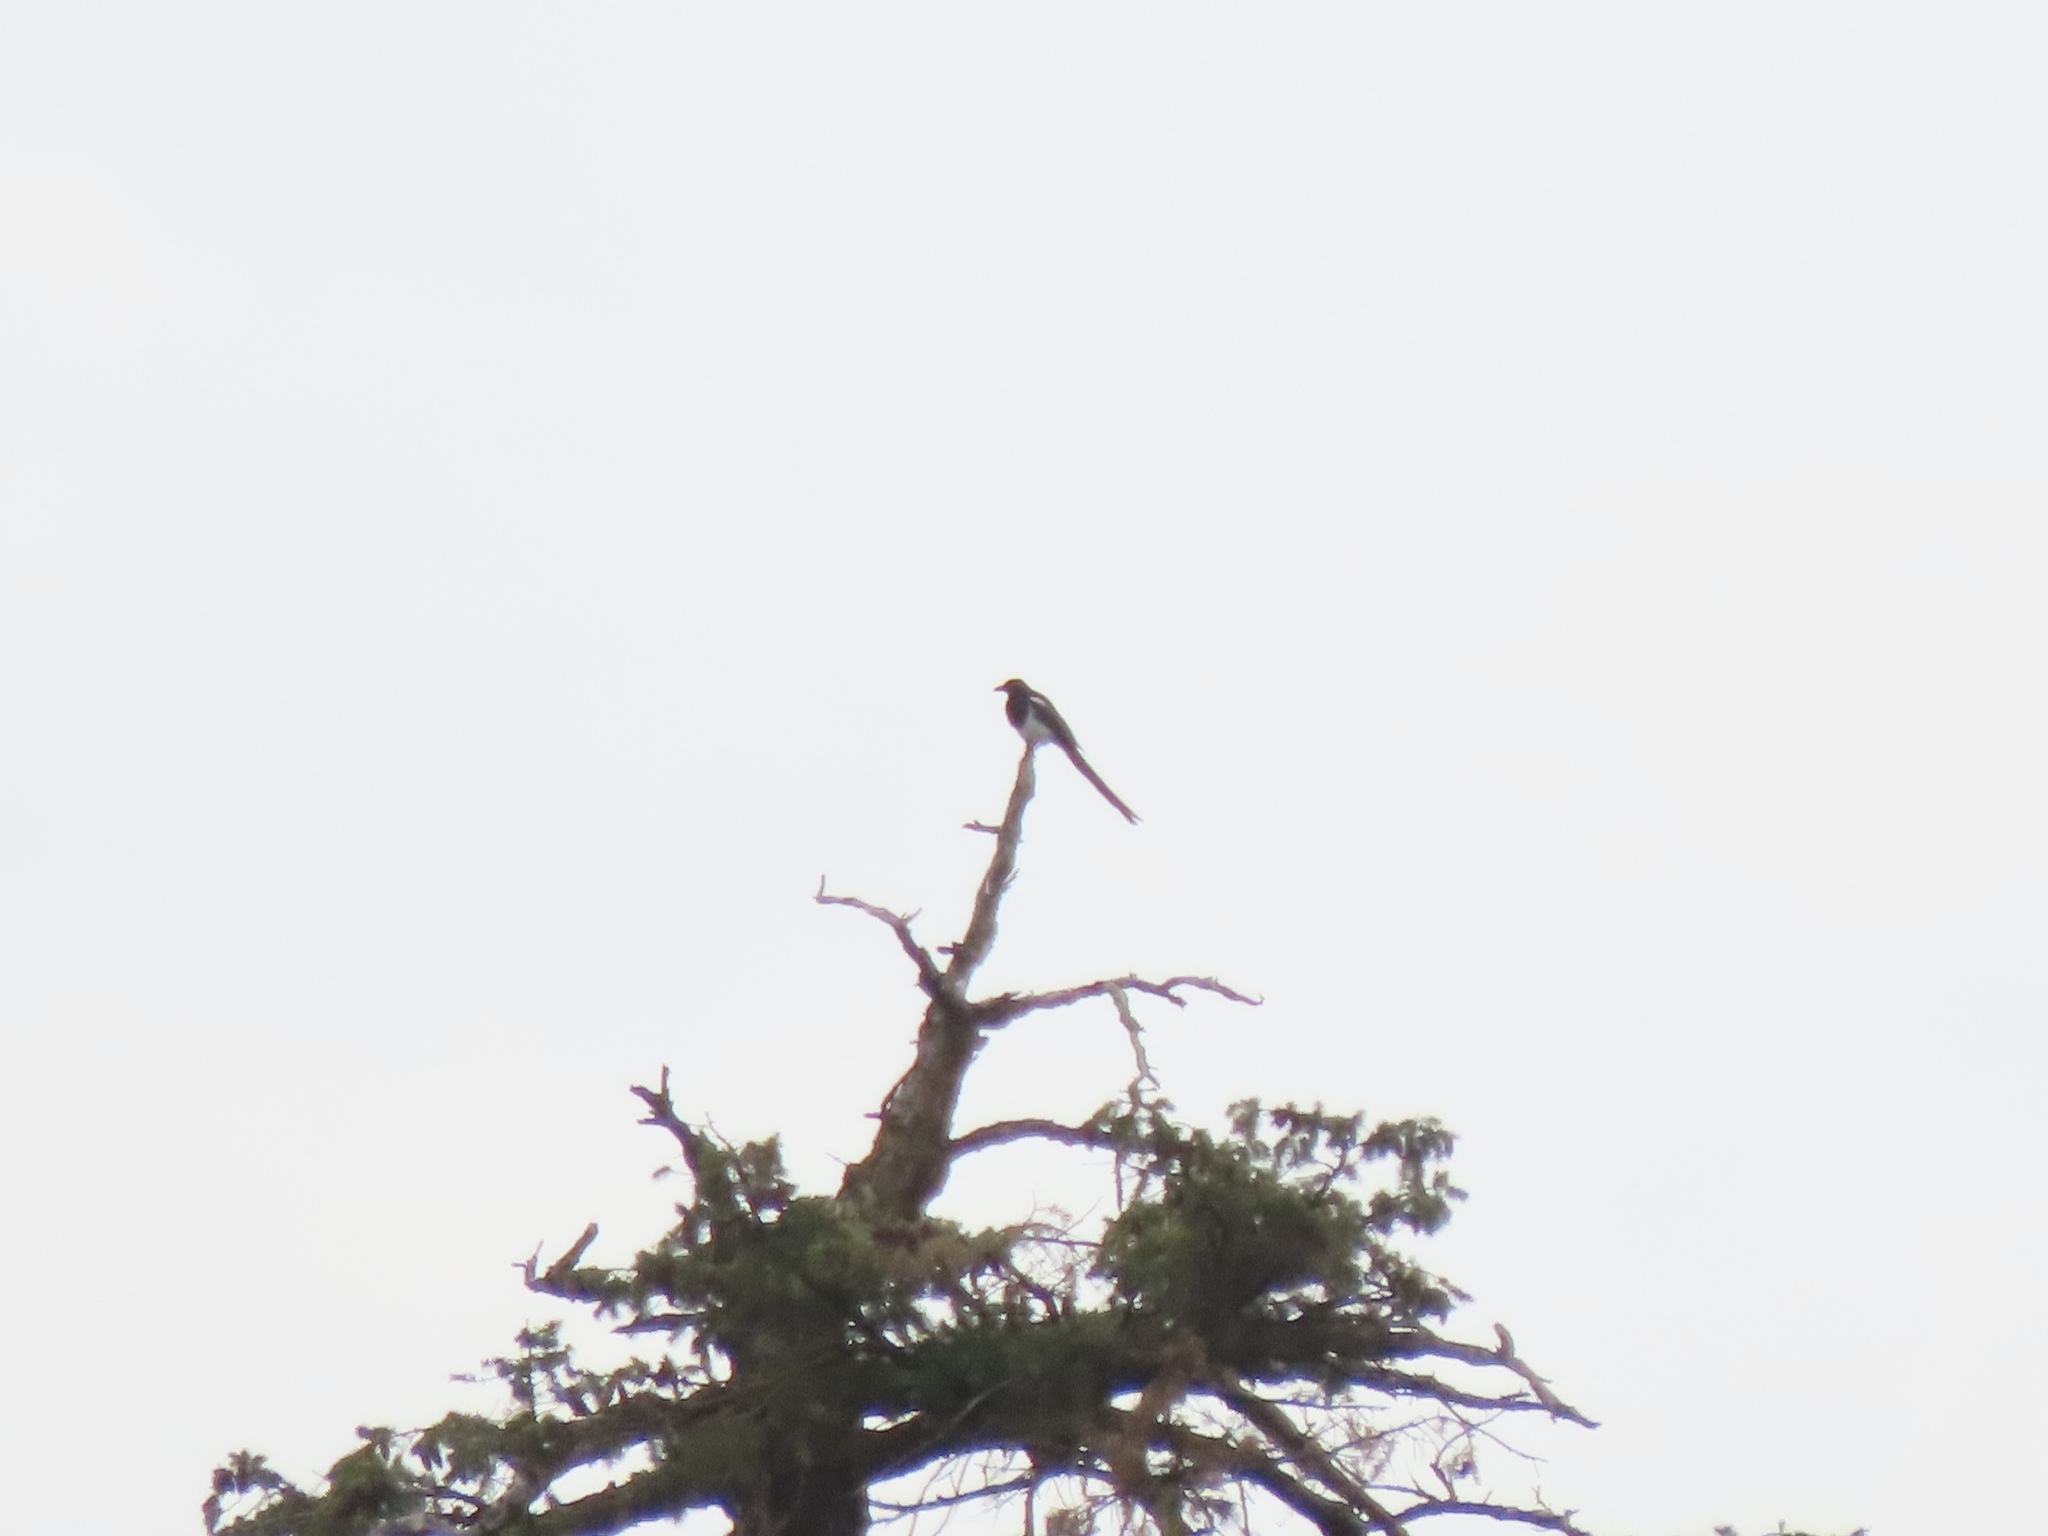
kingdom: Animalia
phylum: Chordata
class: Aves
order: Passeriformes
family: Corvidae
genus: Pica
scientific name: Pica hudsonia
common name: Black-billed magpie
